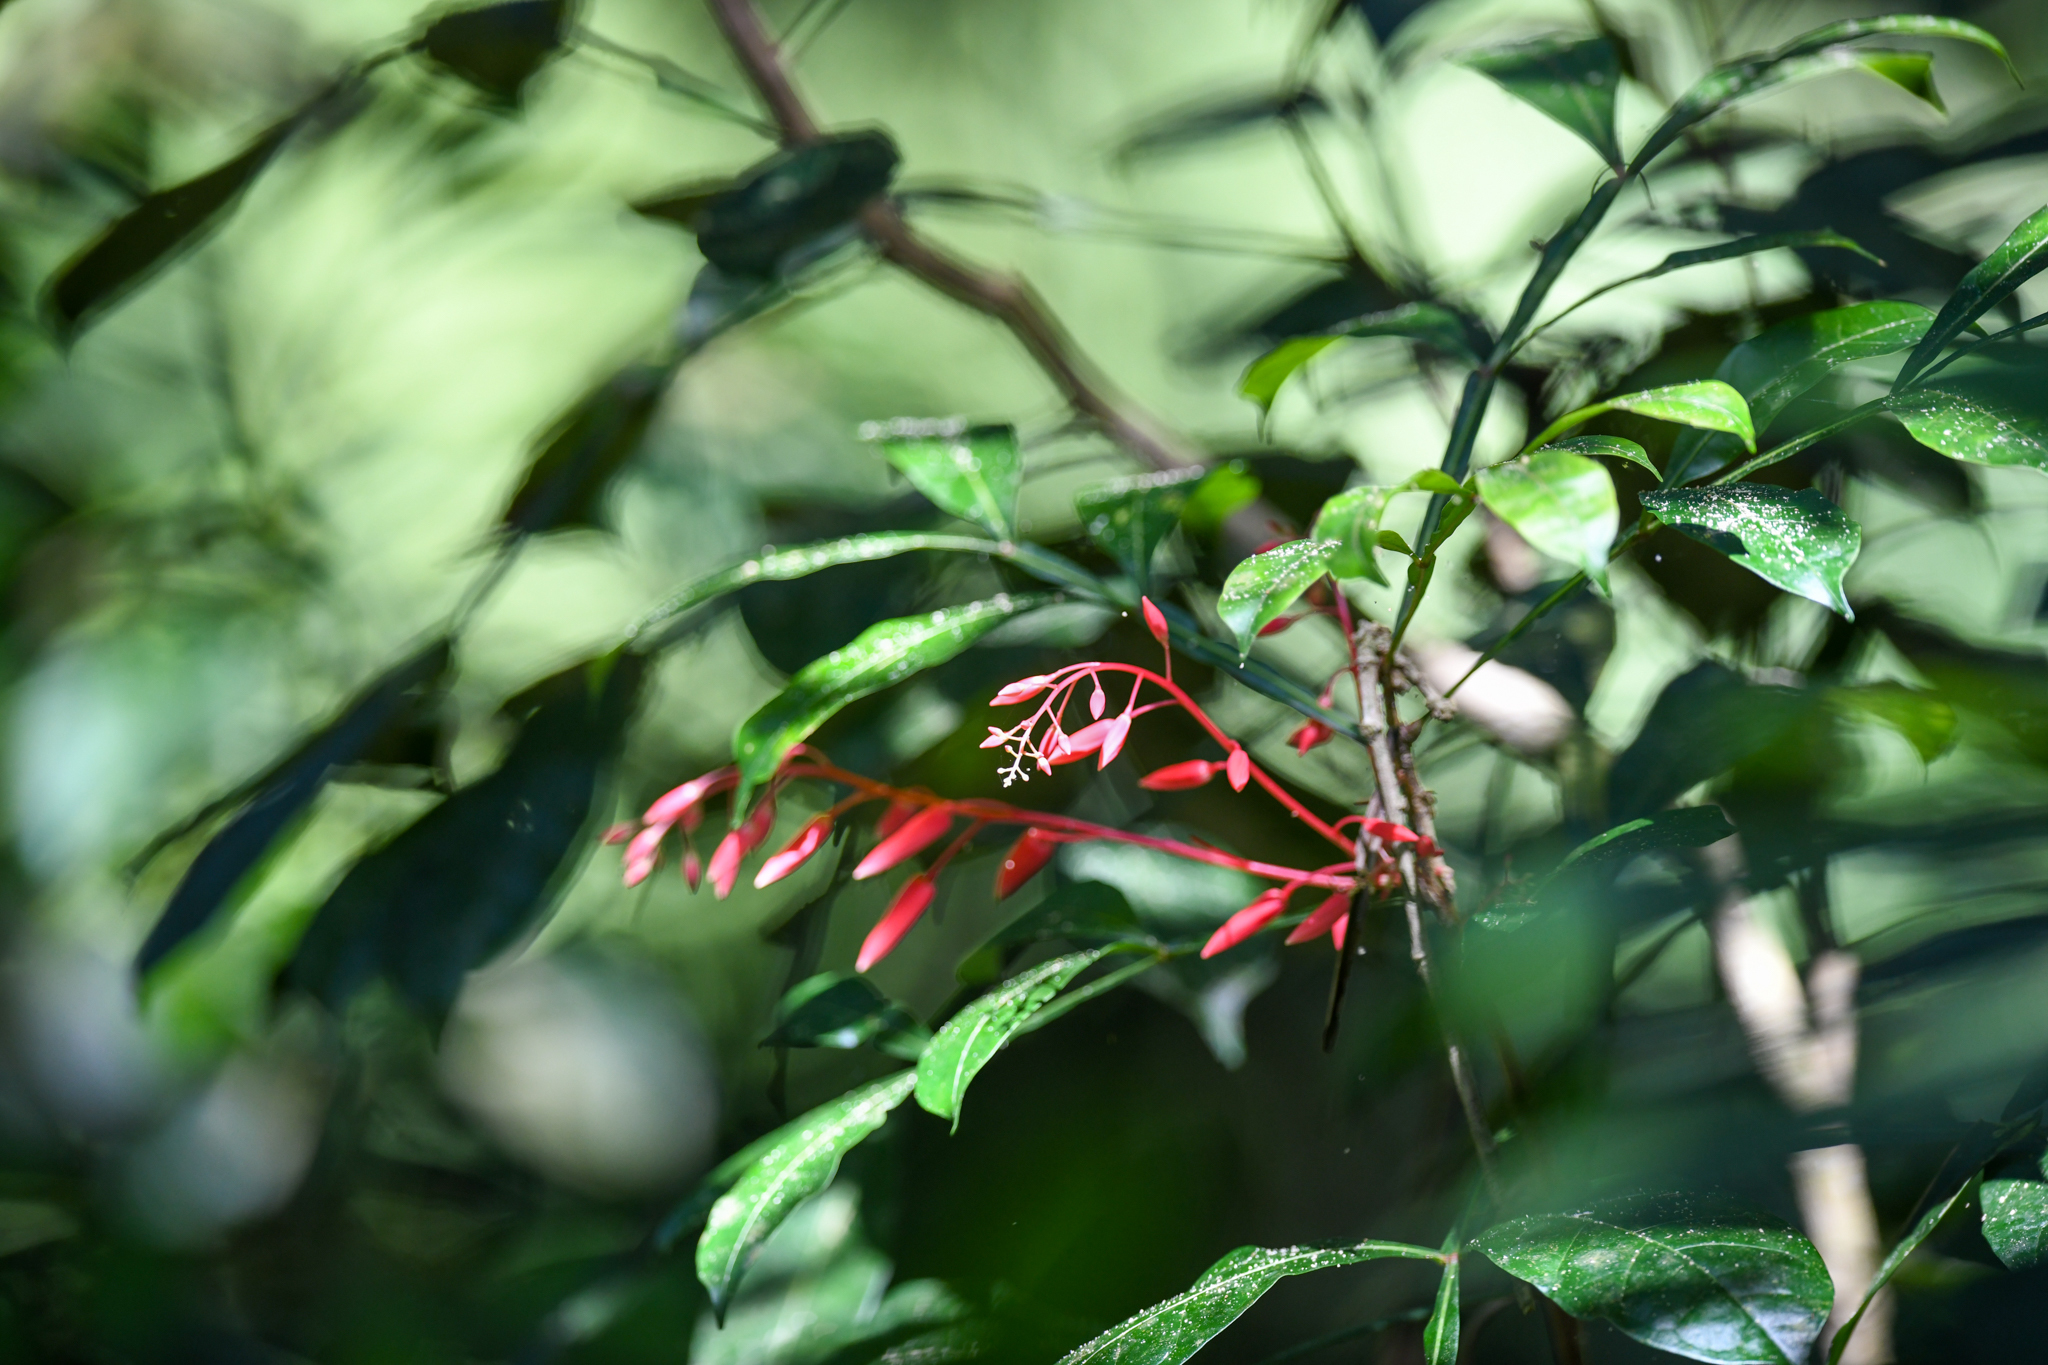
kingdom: Plantae
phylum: Tracheophyta
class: Magnoliopsida
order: Sapindales
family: Simaroubaceae
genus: Quassia
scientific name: Quassia amara
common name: Quassia
